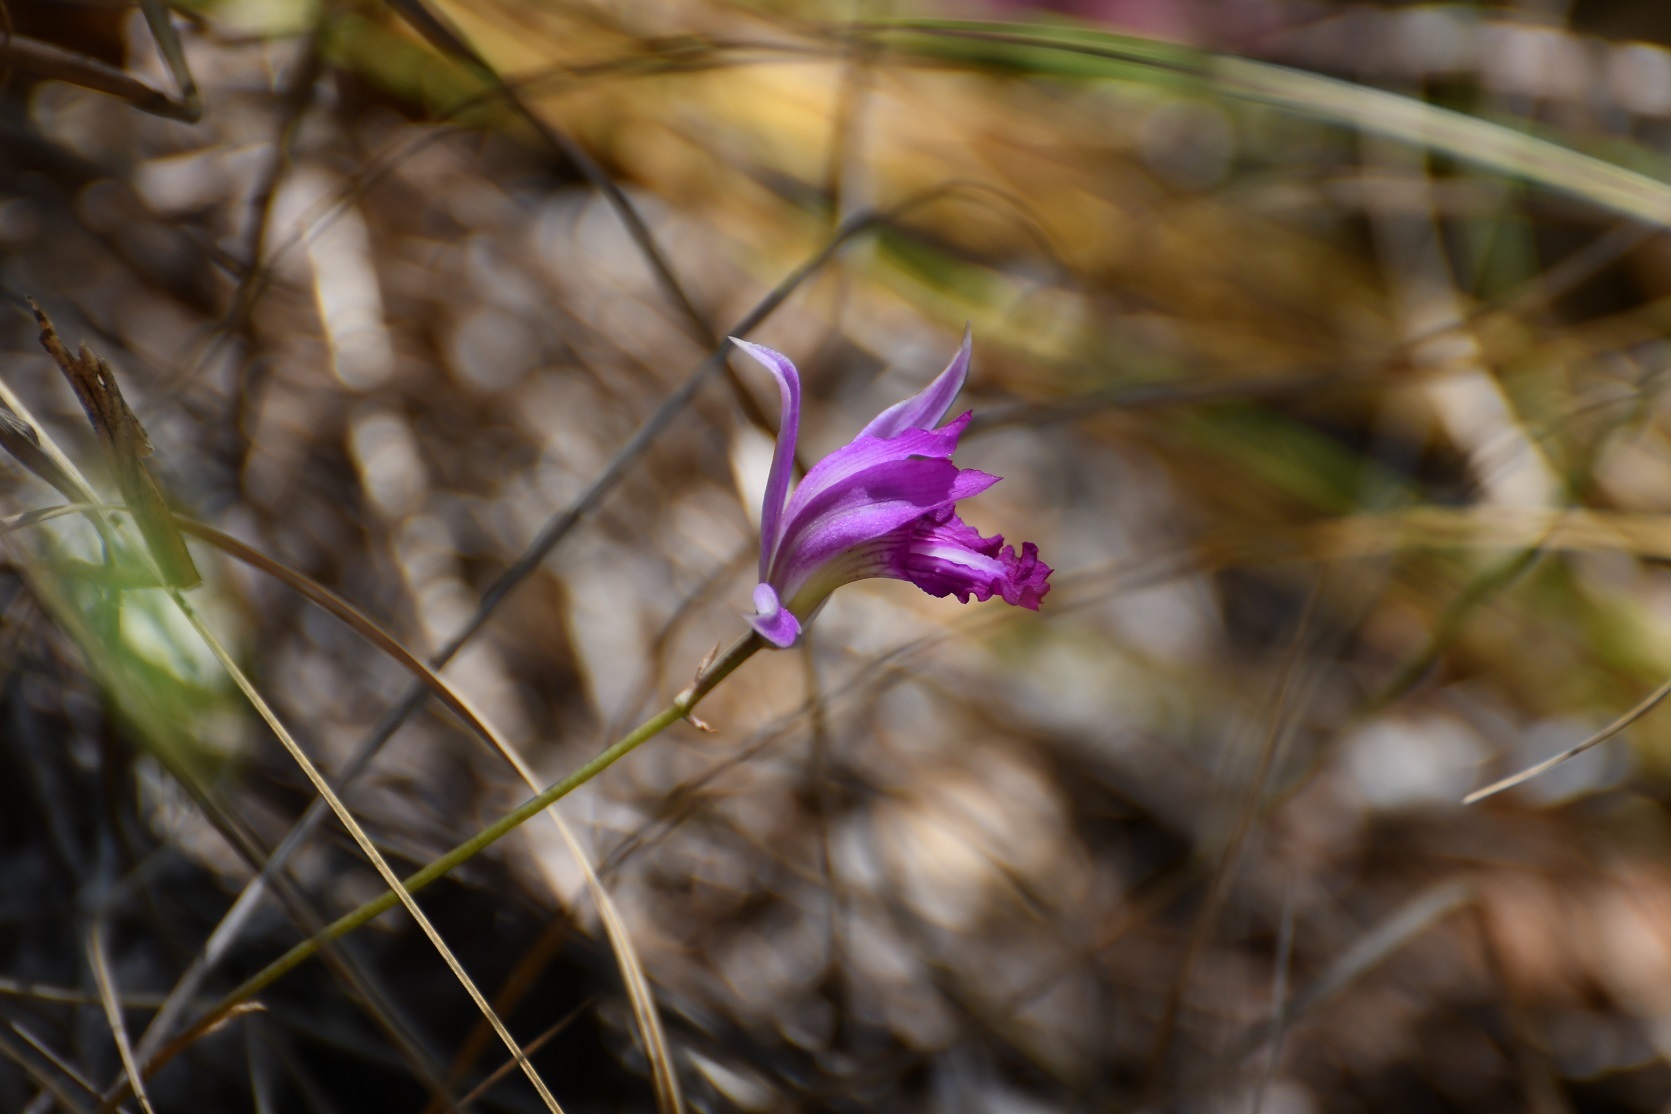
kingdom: Plantae
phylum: Tracheophyta
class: Liliopsida
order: Asparagales
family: Orchidaceae
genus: Bletia
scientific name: Bletia reflexa
